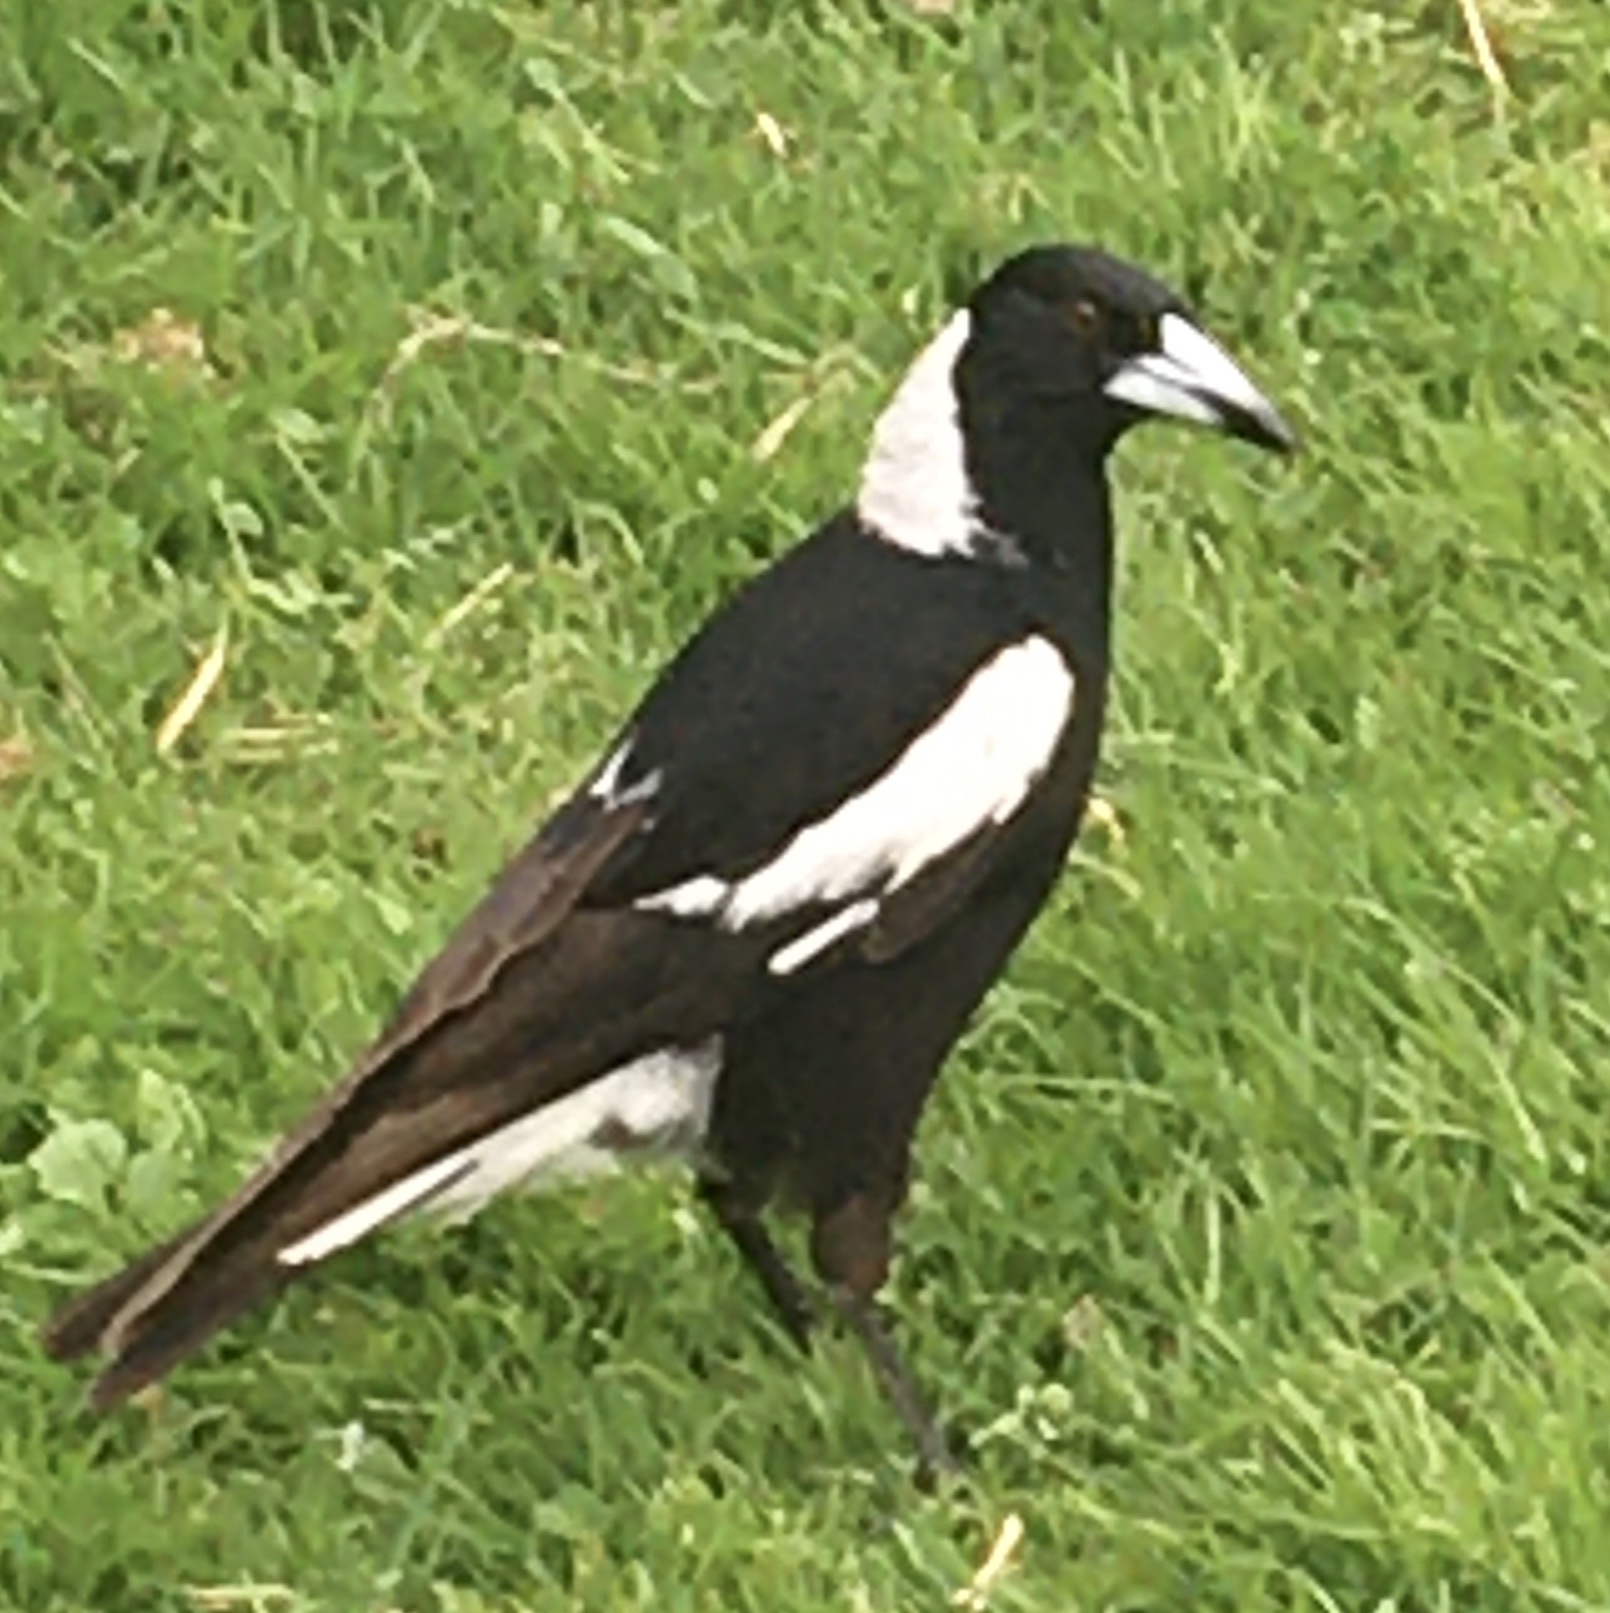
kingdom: Animalia
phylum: Chordata
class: Aves
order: Passeriformes
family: Cracticidae
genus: Gymnorhina
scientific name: Gymnorhina tibicen
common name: Australian magpie
